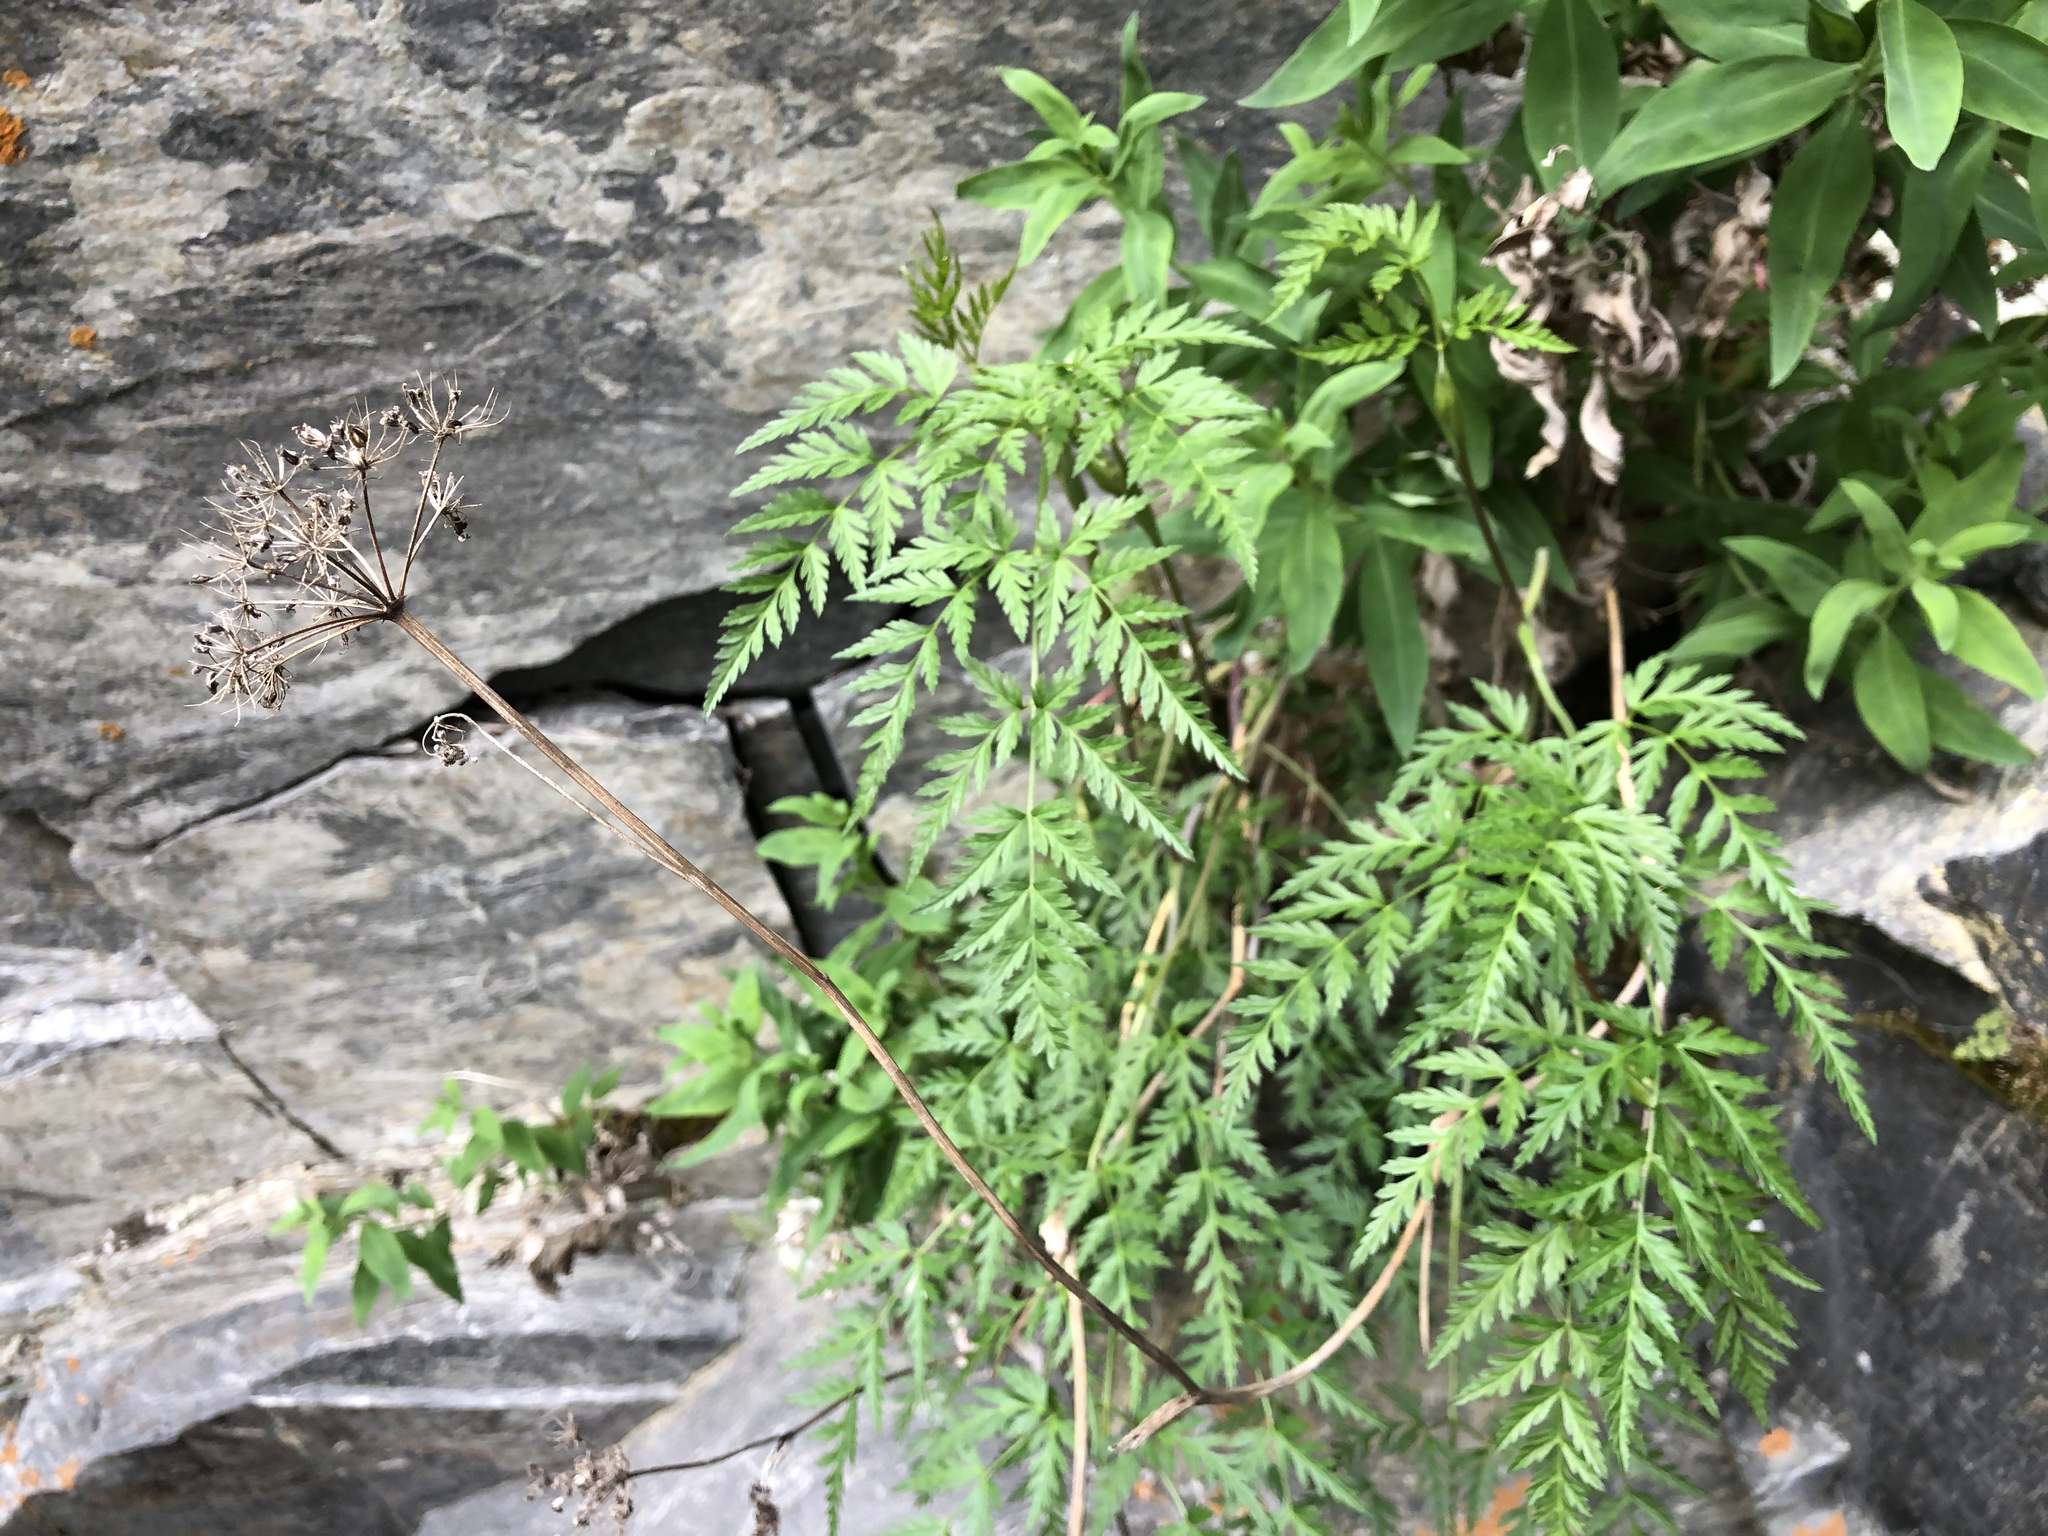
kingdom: Plantae
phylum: Tracheophyta
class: Magnoliopsida
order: Apiales
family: Apiaceae
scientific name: Apiaceae
